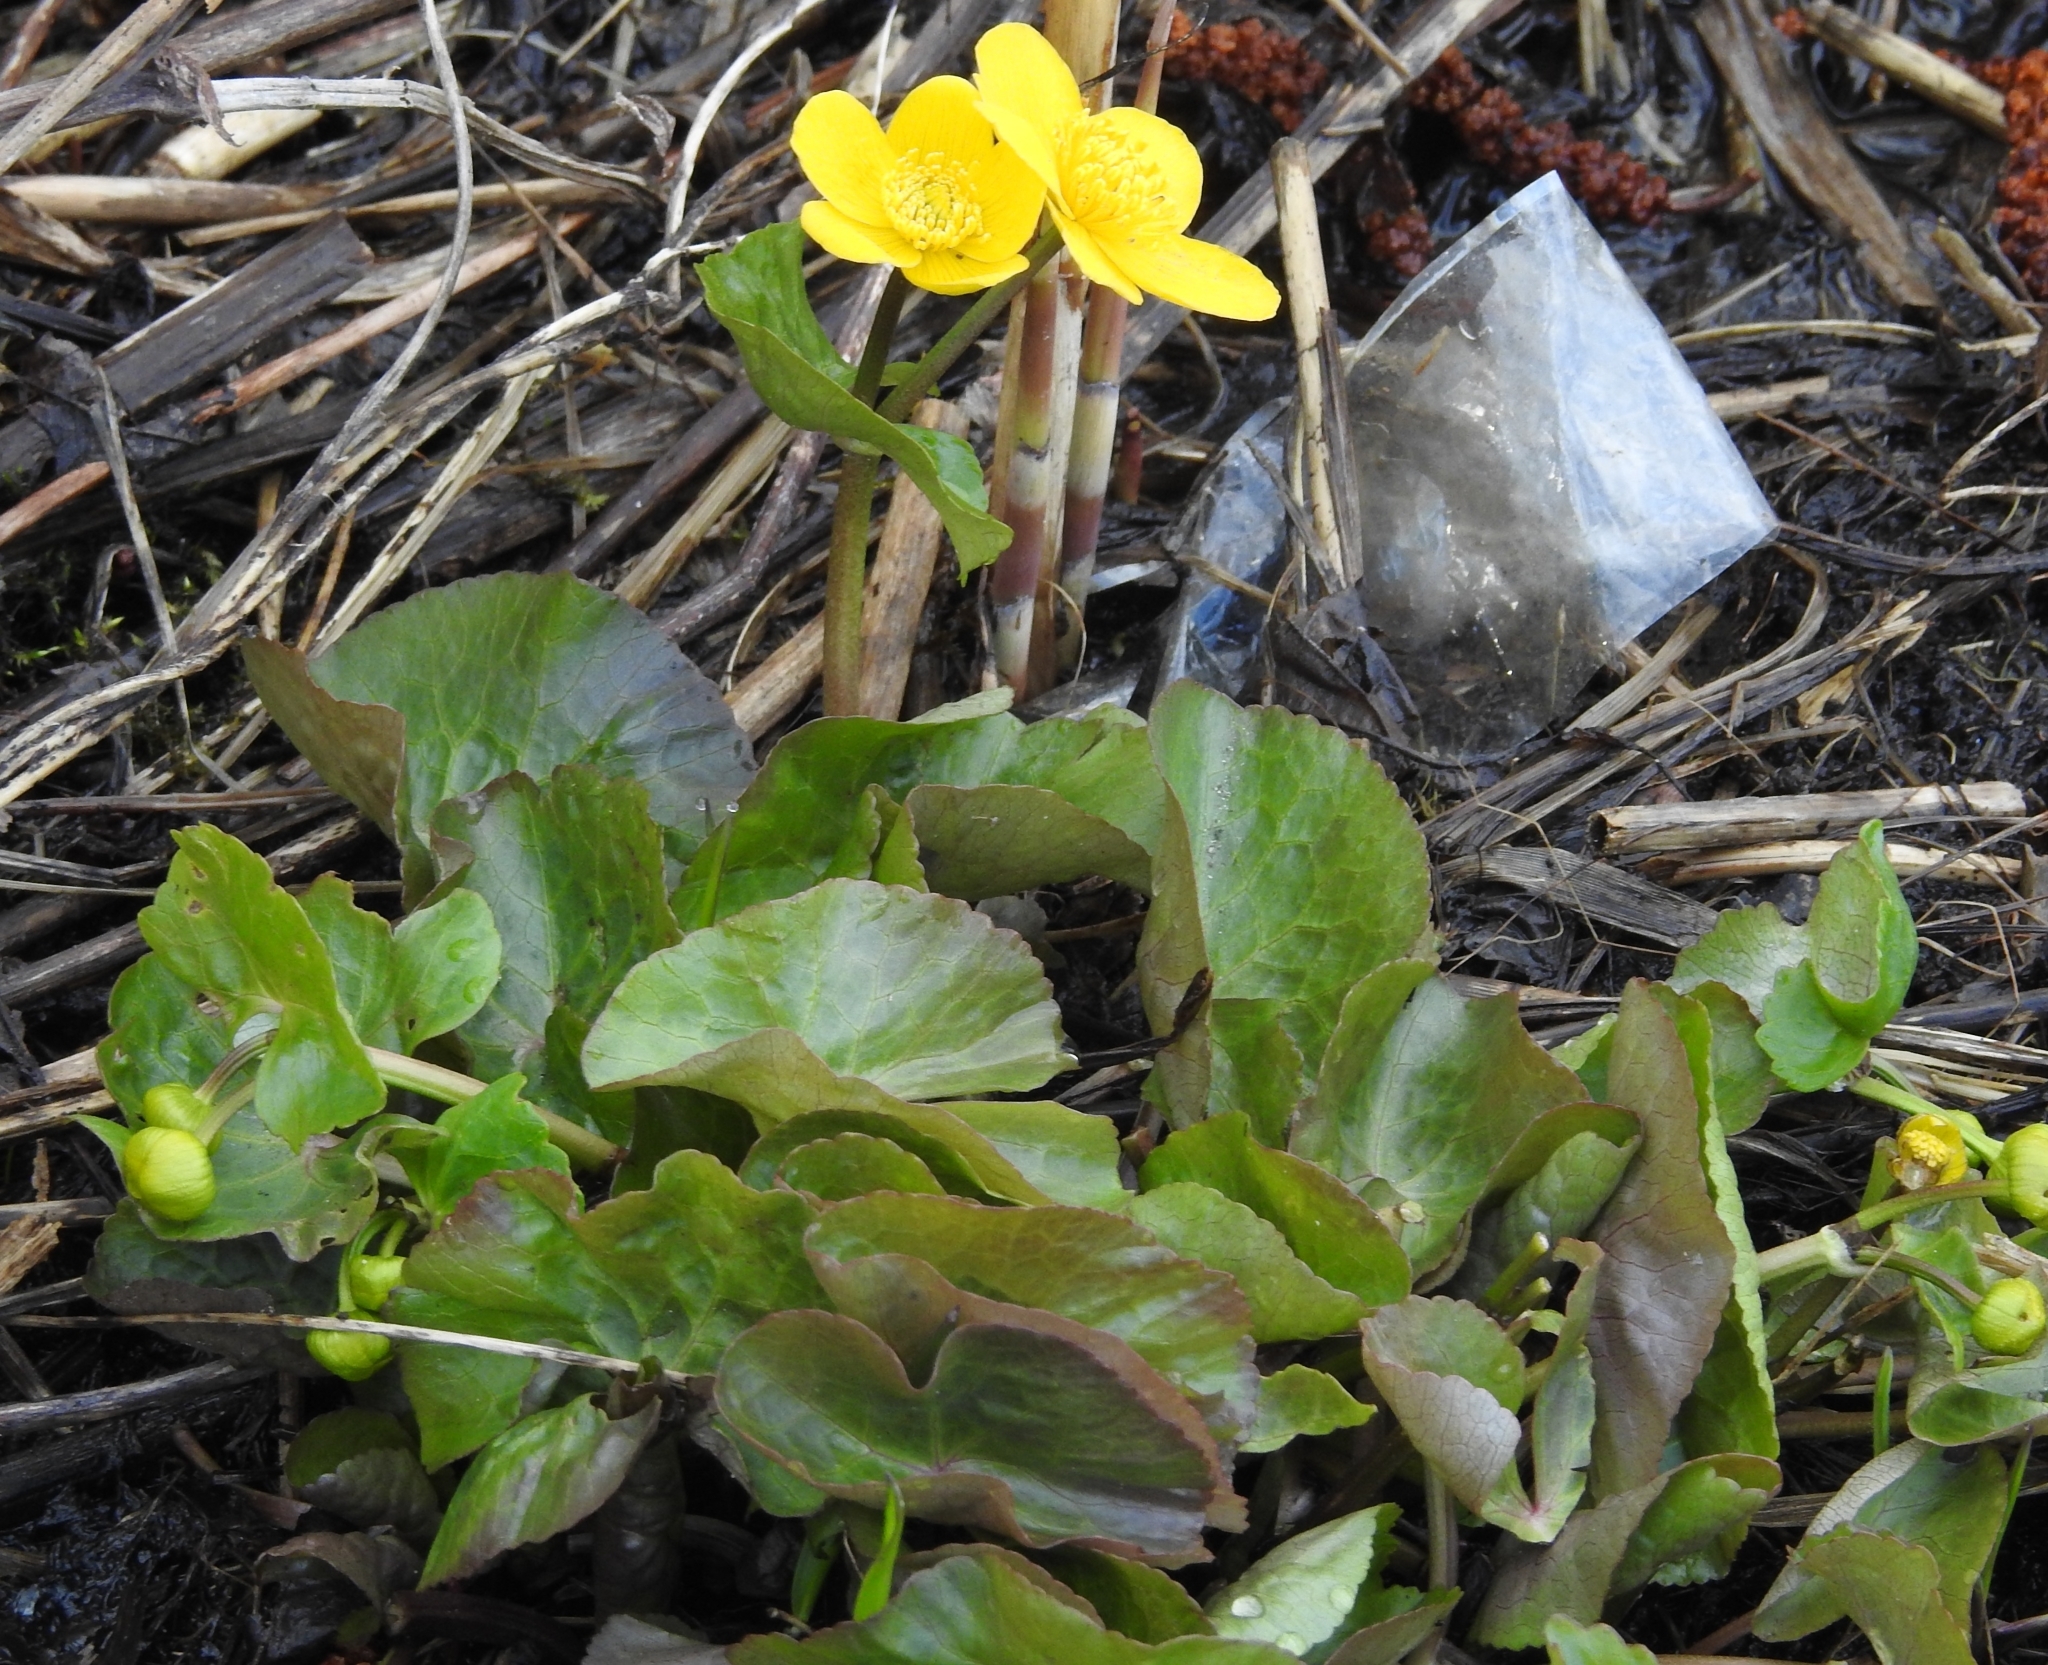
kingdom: Plantae
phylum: Tracheophyta
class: Magnoliopsida
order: Ranunculales
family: Ranunculaceae
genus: Caltha
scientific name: Caltha palustris
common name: Marsh marigold
